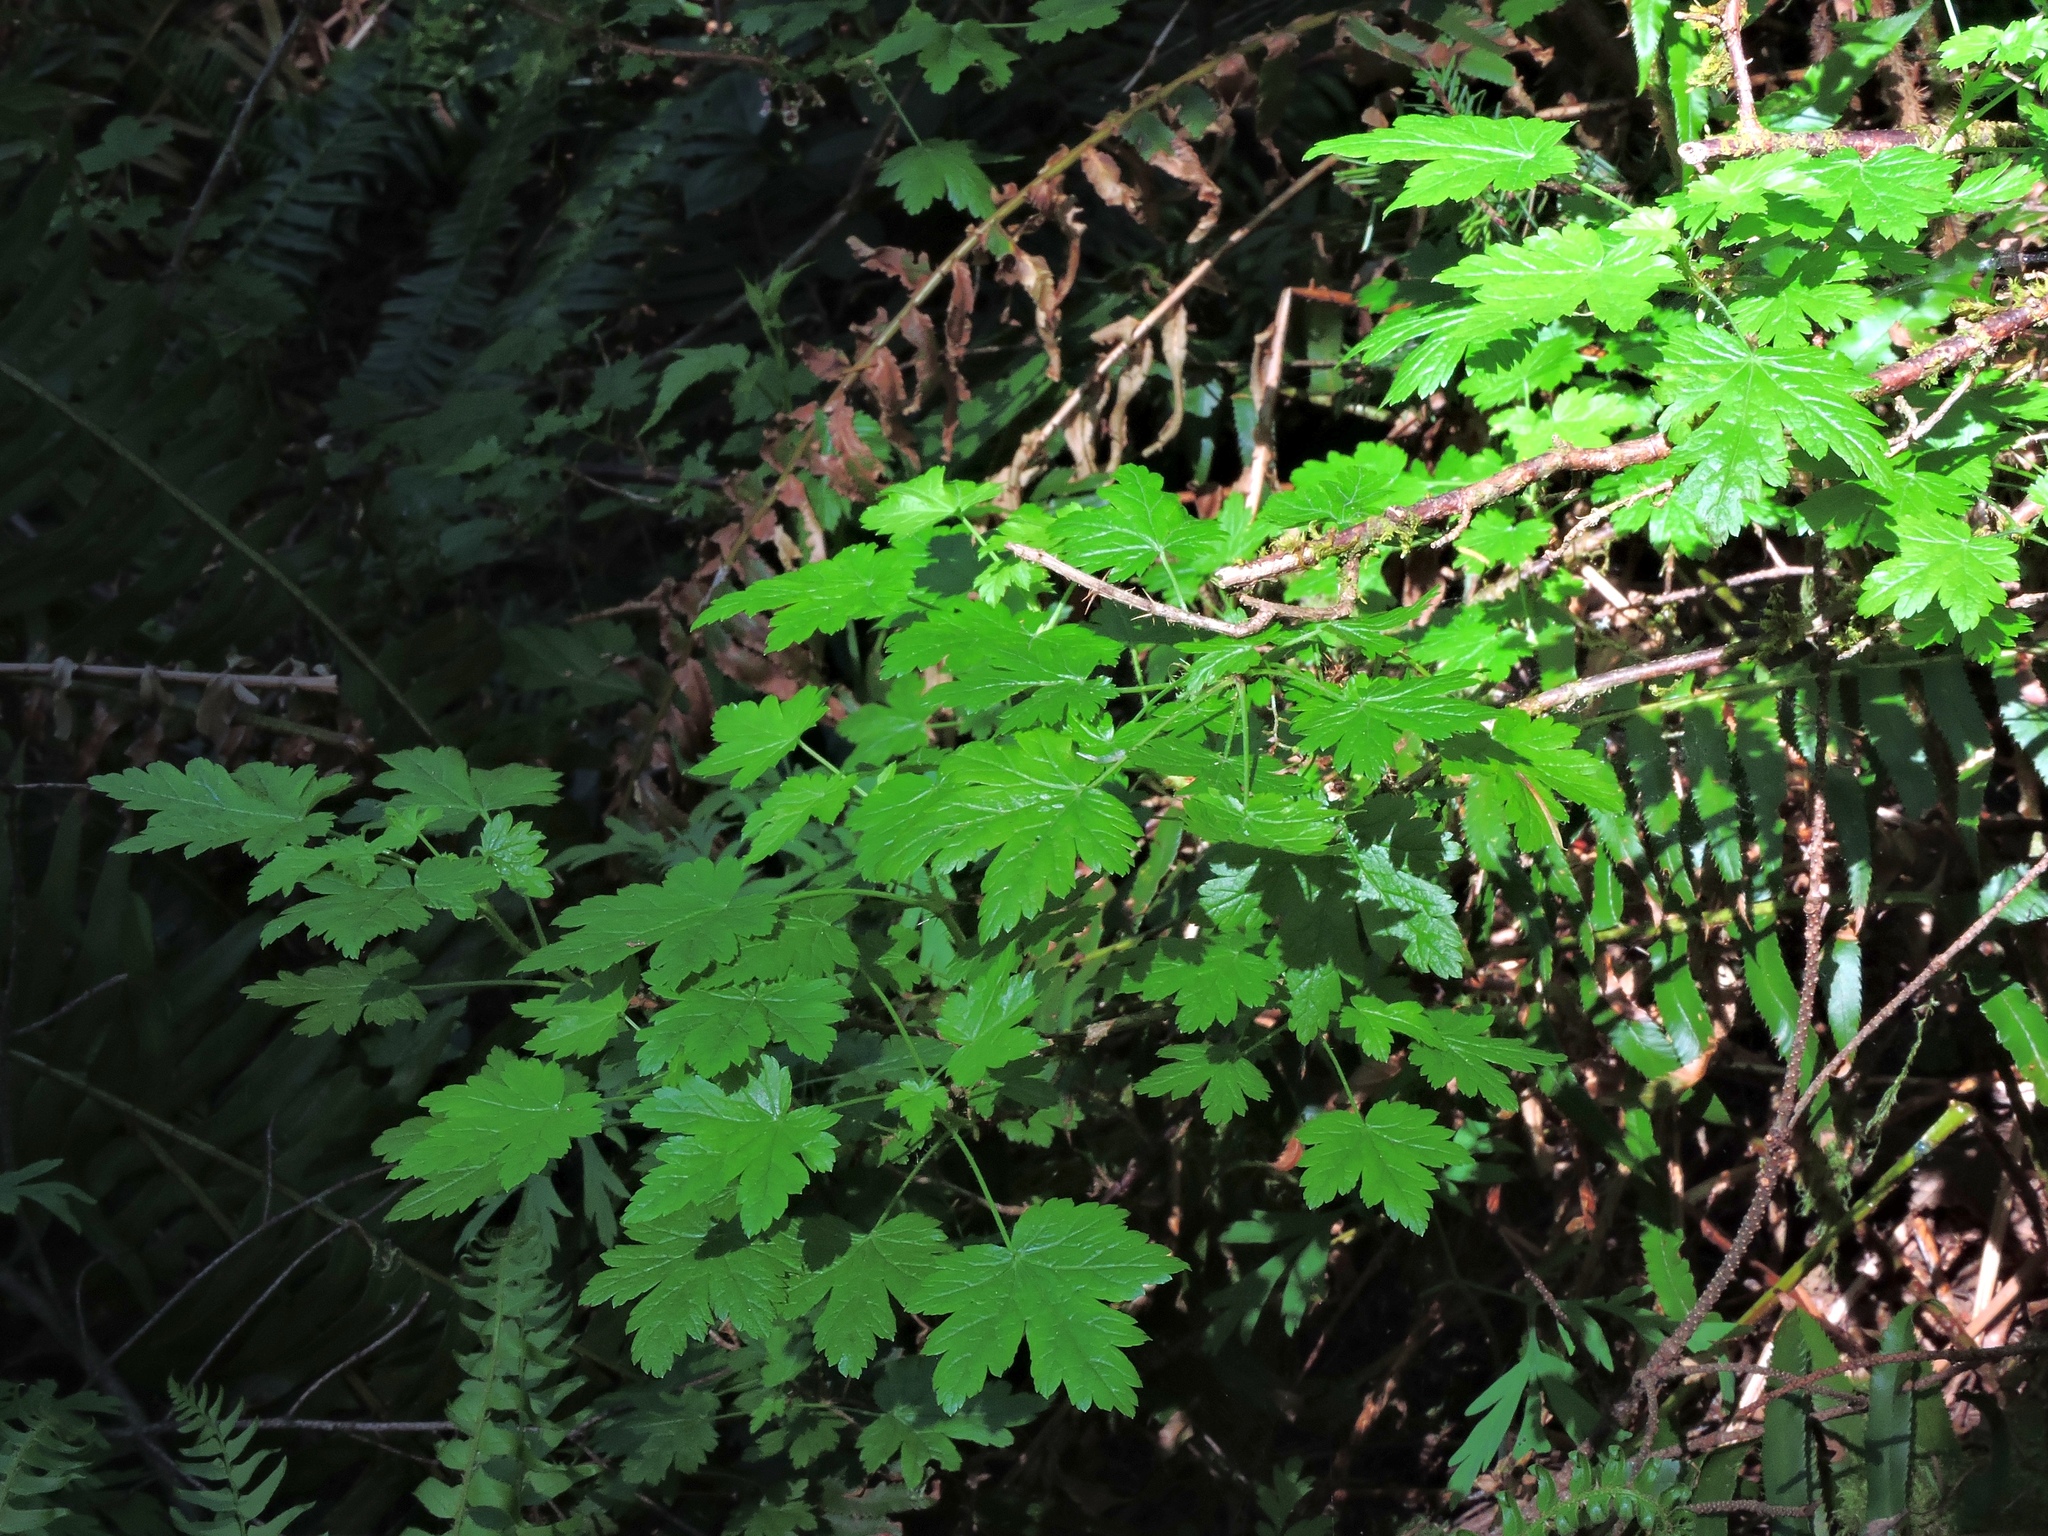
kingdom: Plantae
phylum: Tracheophyta
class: Magnoliopsida
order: Saxifragales
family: Grossulariaceae
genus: Ribes
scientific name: Ribes lacustre
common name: Black gooseberry
